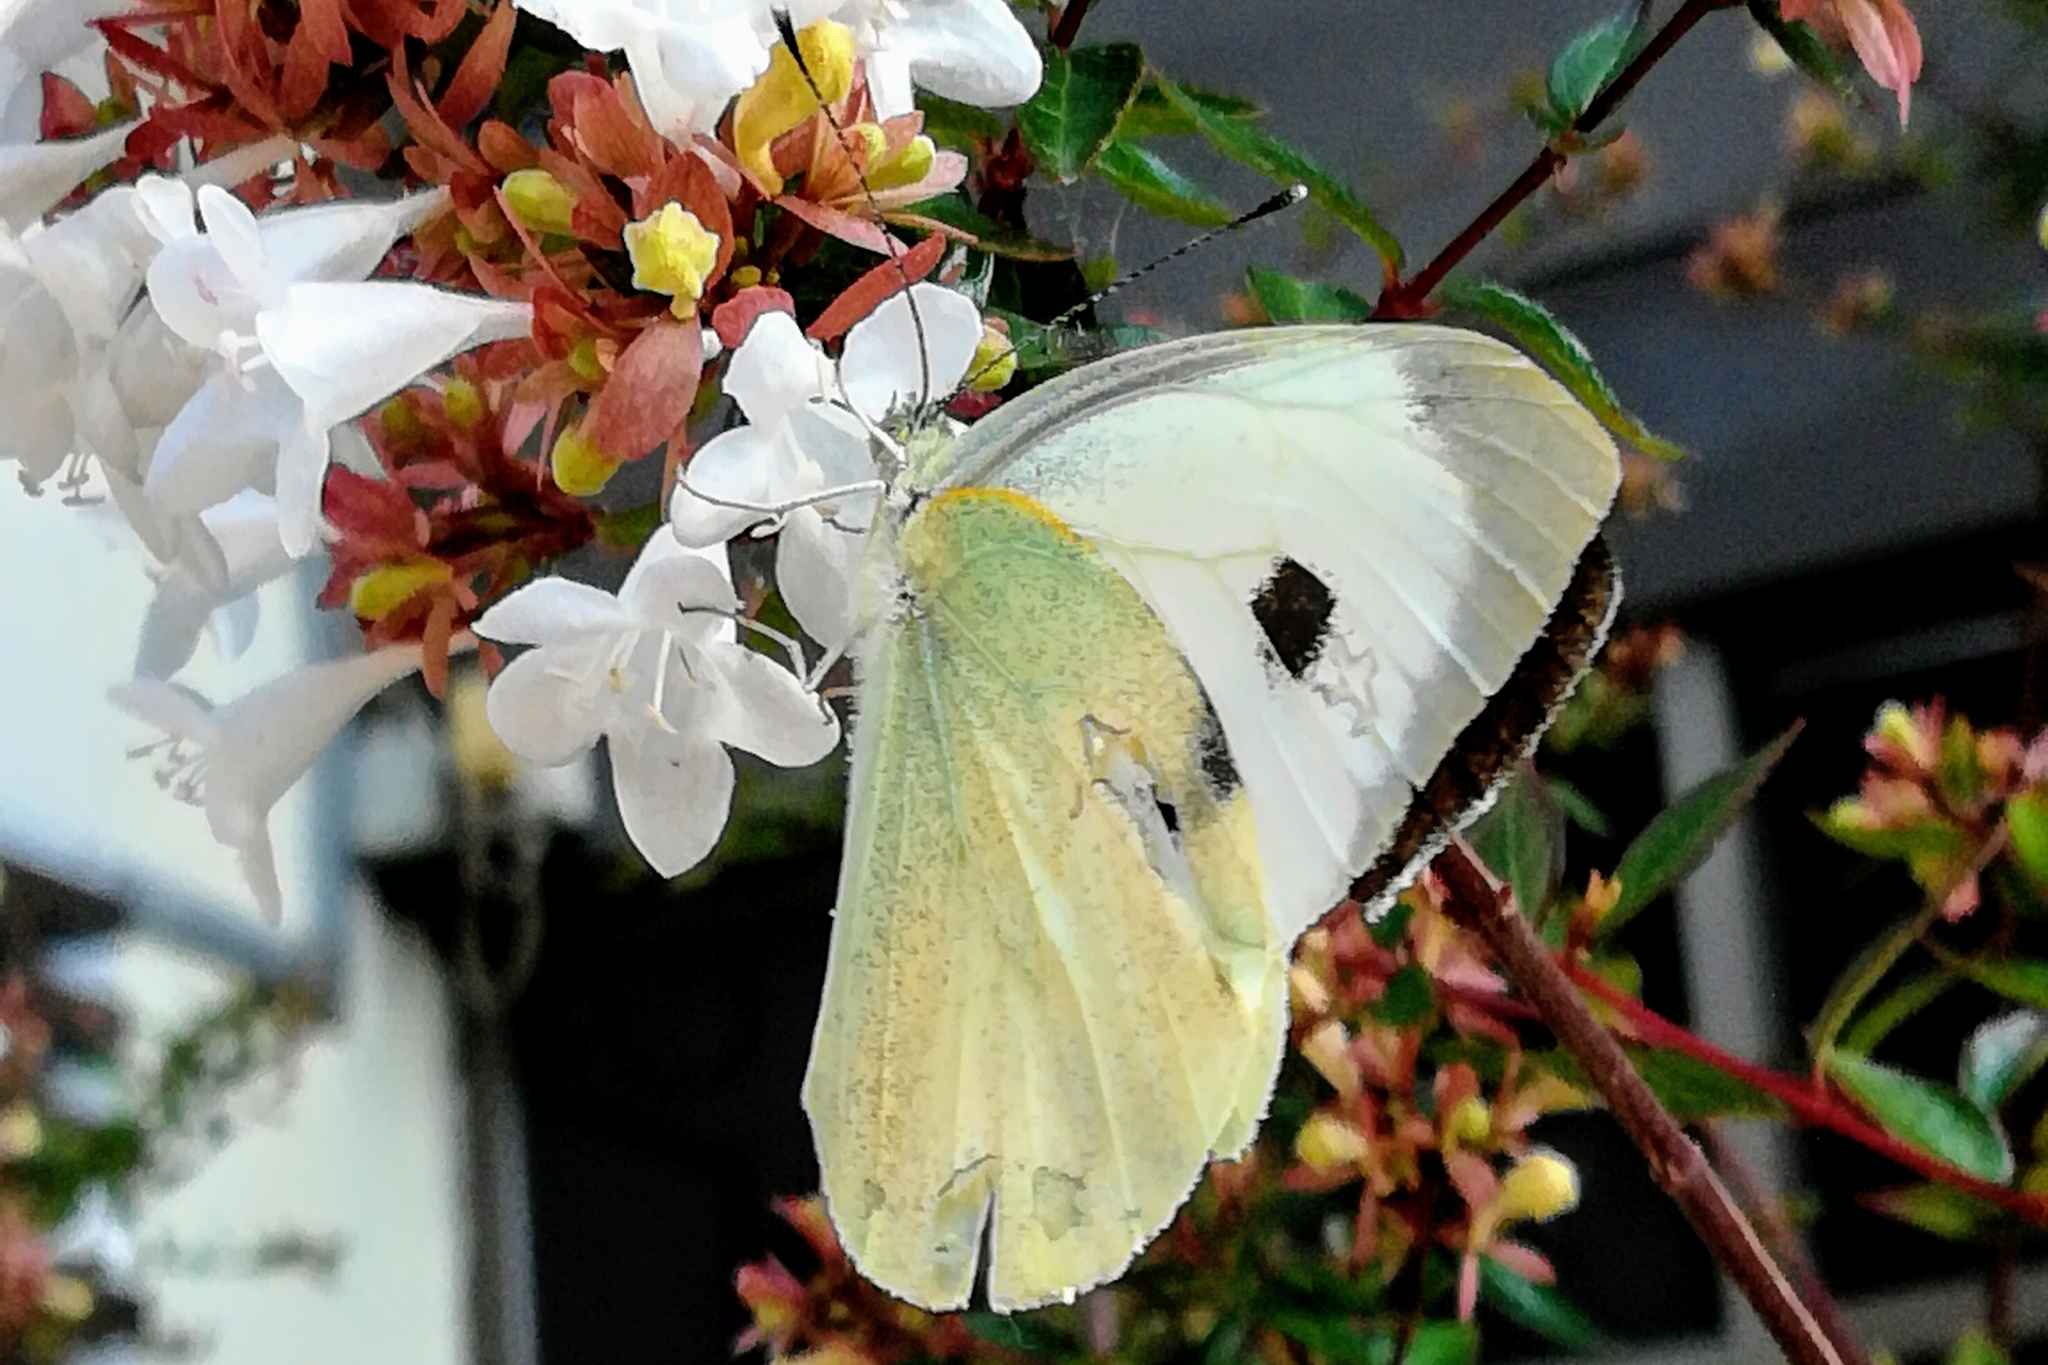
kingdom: Animalia
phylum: Arthropoda
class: Insecta
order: Lepidoptera
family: Pieridae
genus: Pieris
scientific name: Pieris brassicae
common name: Large white
